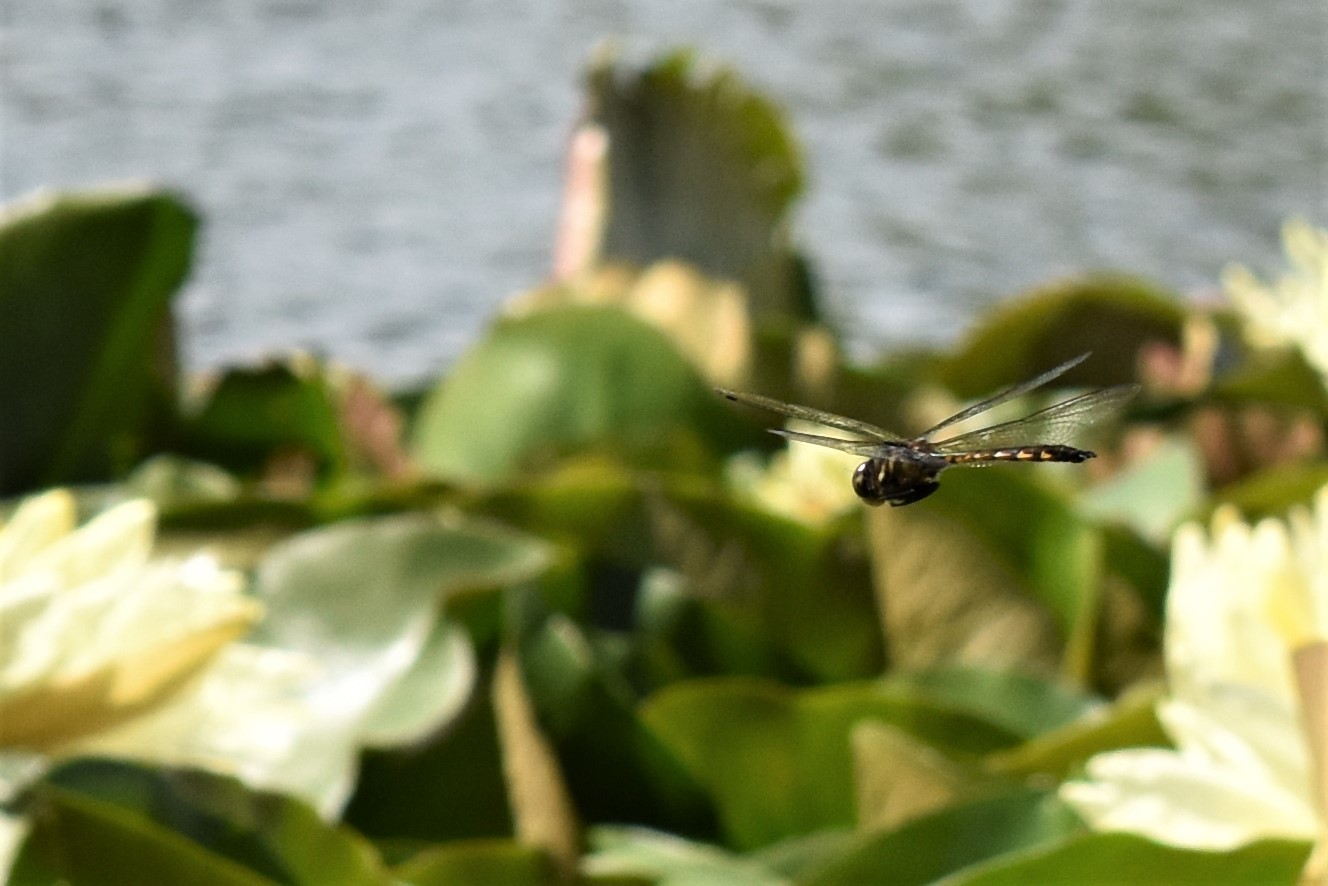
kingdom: Animalia
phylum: Arthropoda
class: Insecta
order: Odonata
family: Corduliidae
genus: Hemicordulia
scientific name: Hemicordulia armstrongi
